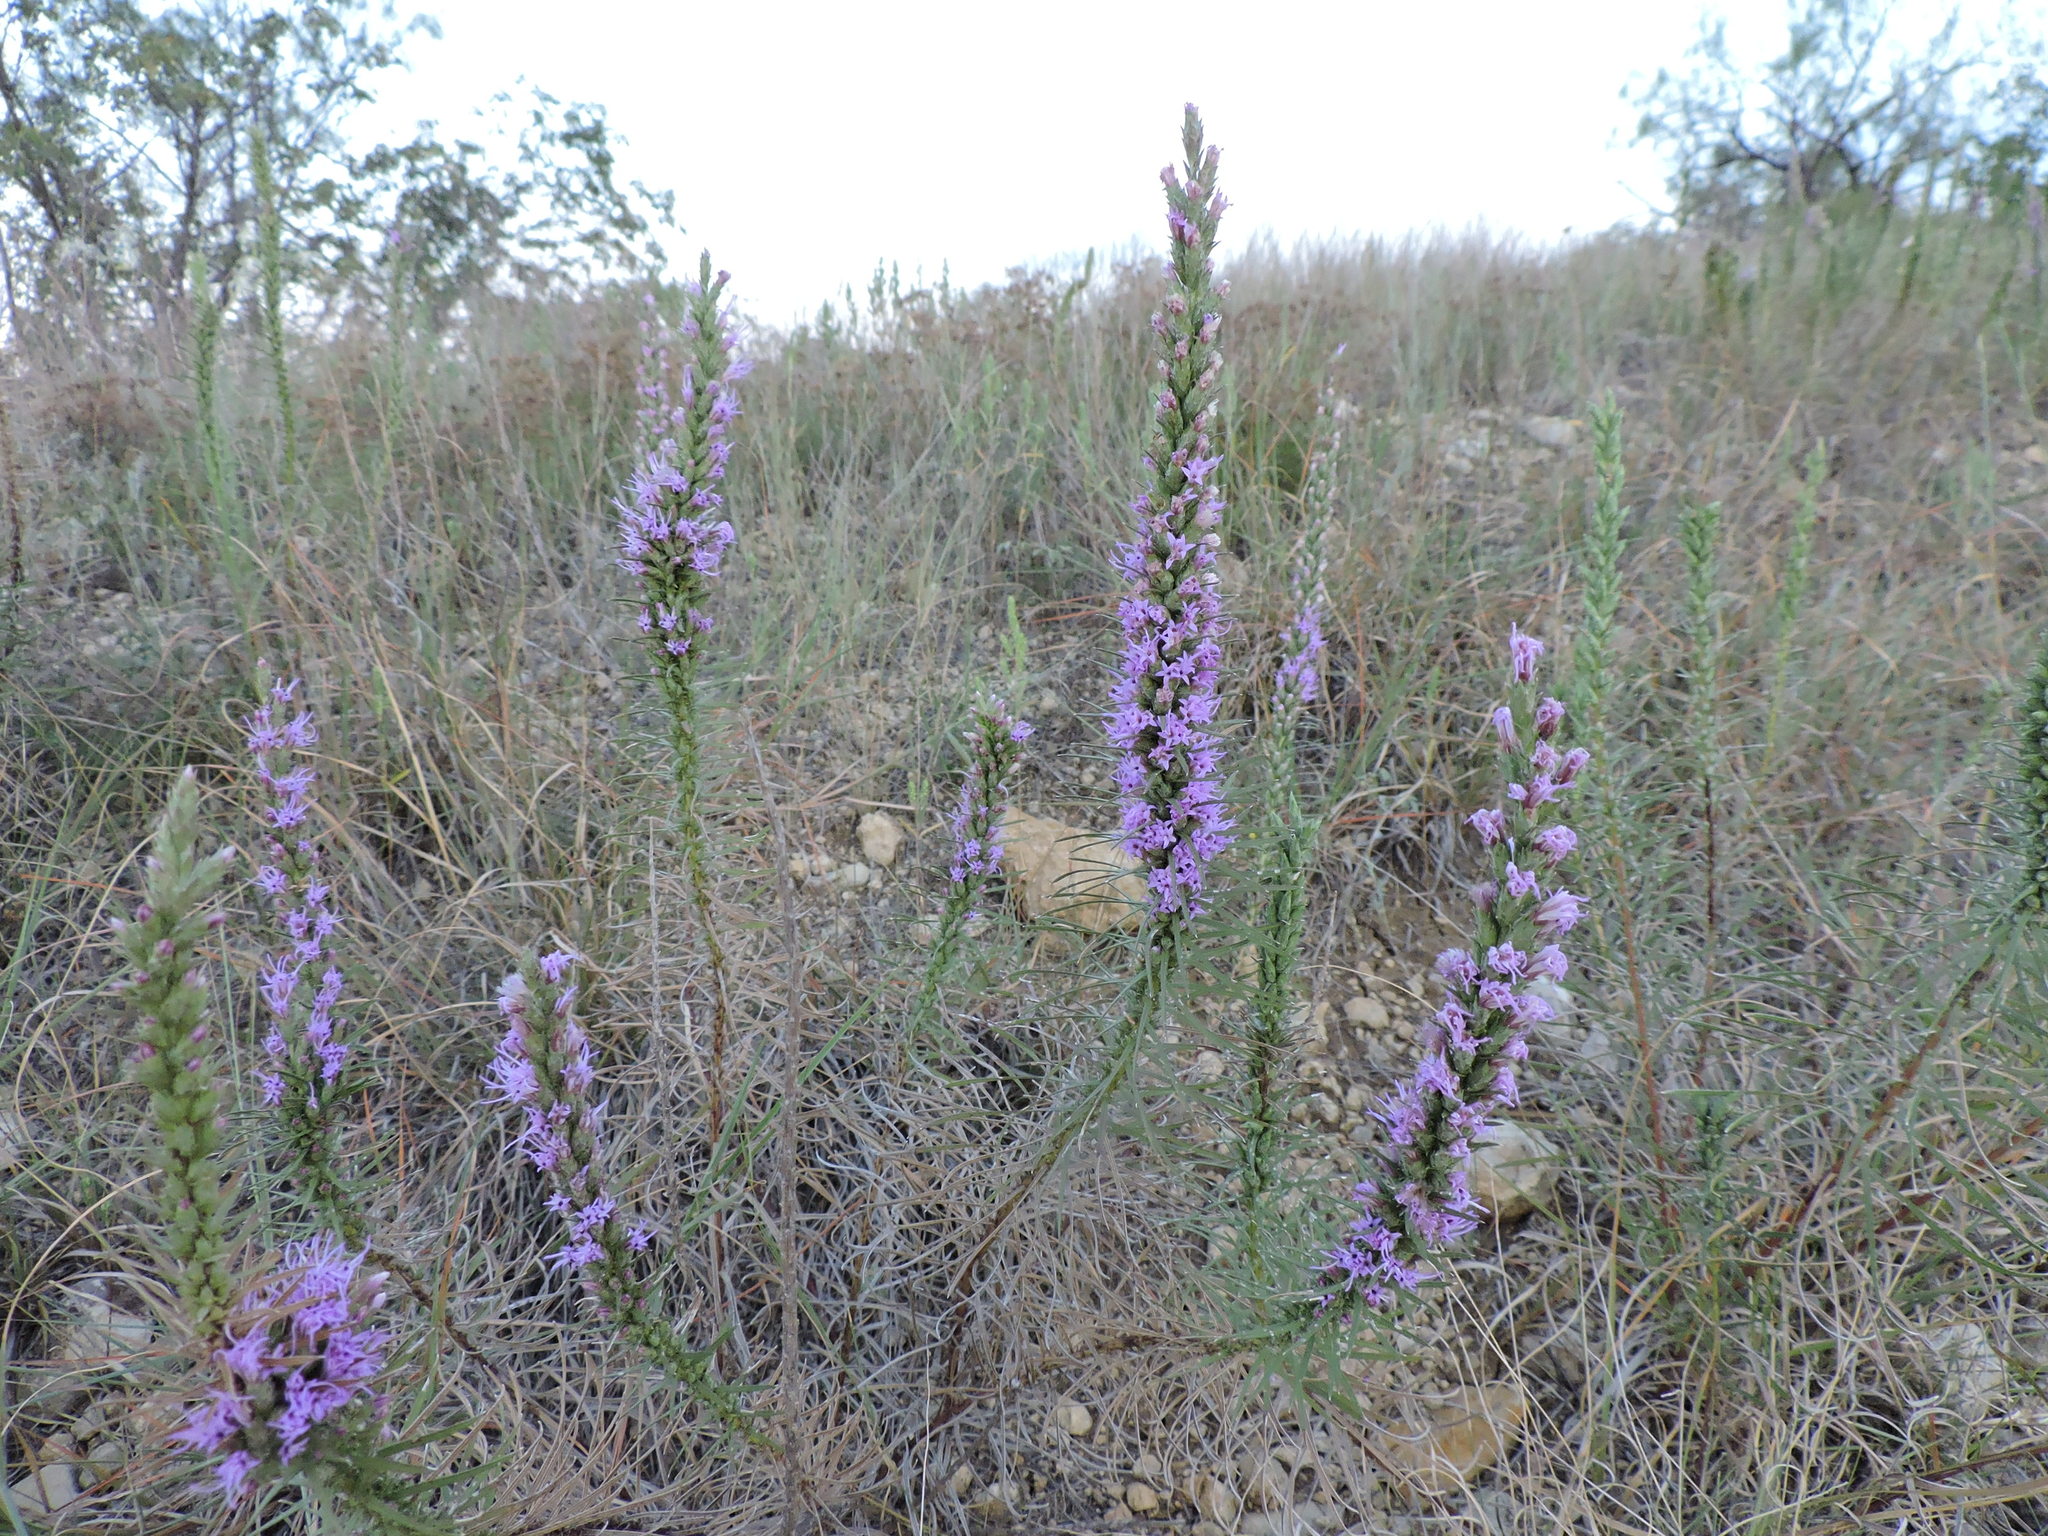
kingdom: Plantae
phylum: Tracheophyta
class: Magnoliopsida
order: Asterales
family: Asteraceae
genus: Liatris
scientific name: Liatris punctata
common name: Dotted gayfeather
